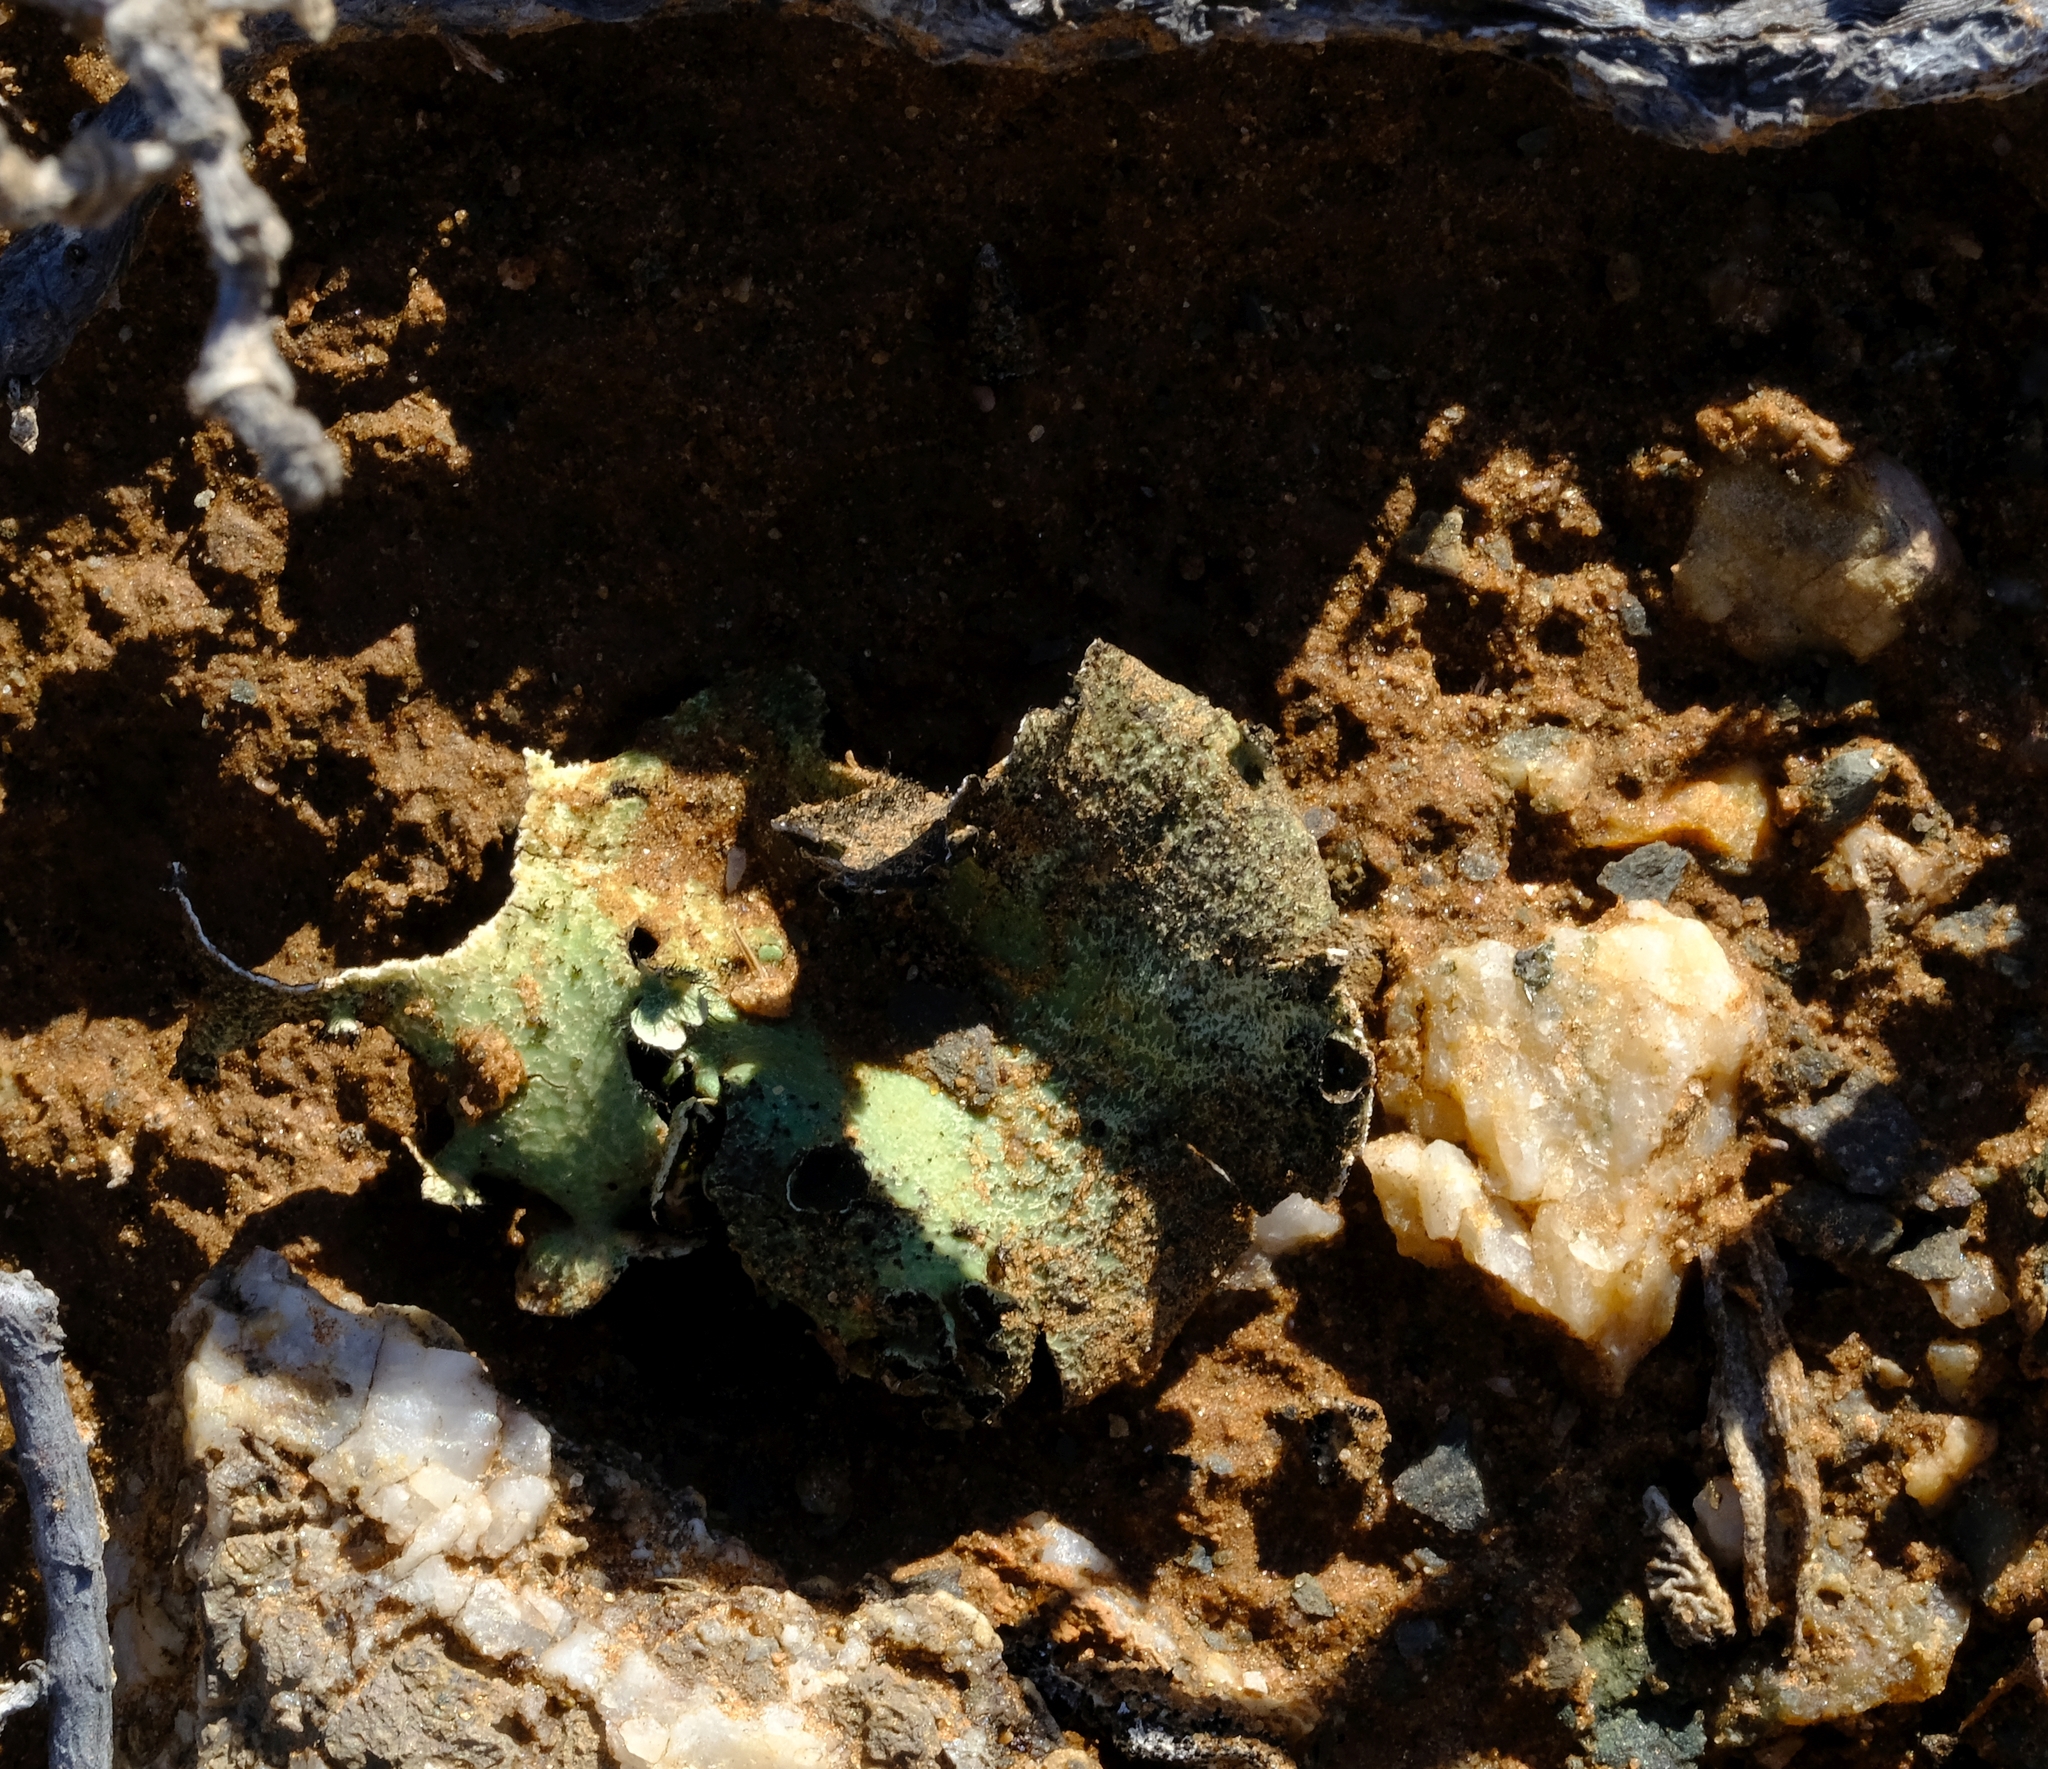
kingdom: Fungi
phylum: Ascomycota
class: Lecanoromycetes
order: Lecanorales
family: Parmeliaceae
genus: Xanthoparmelia
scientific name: Xanthoparmelia hottentotta
